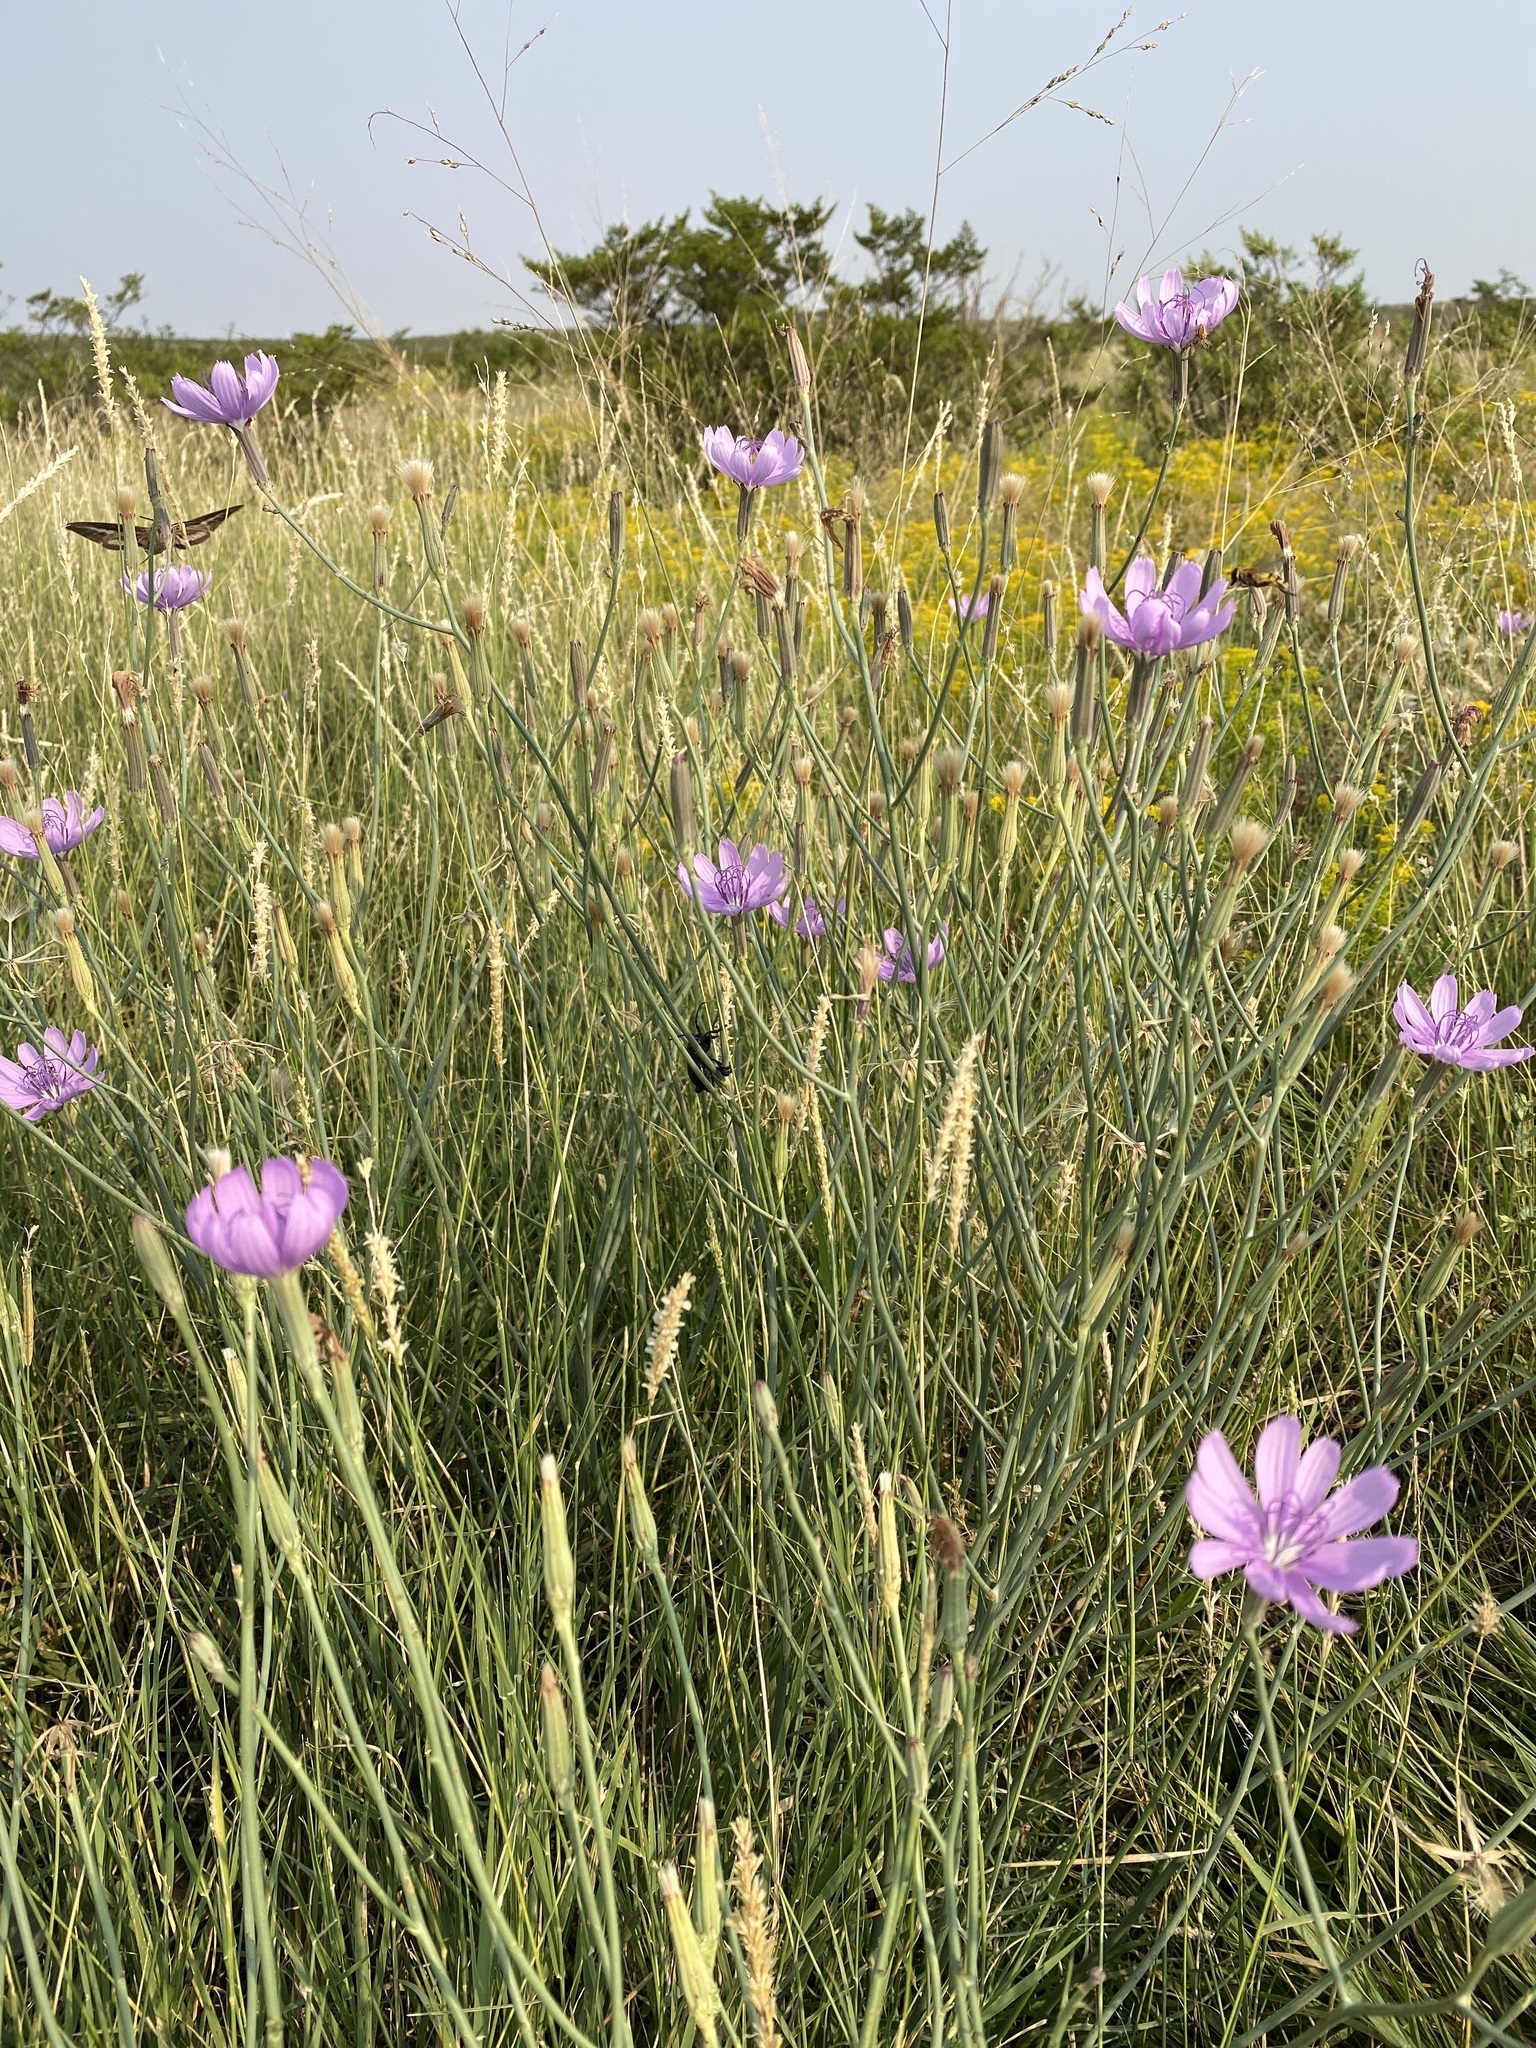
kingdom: Plantae
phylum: Tracheophyta
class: Magnoliopsida
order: Asterales
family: Asteraceae
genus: Lygodesmia
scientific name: Lygodesmia texana
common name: Texas skeleton-plant
